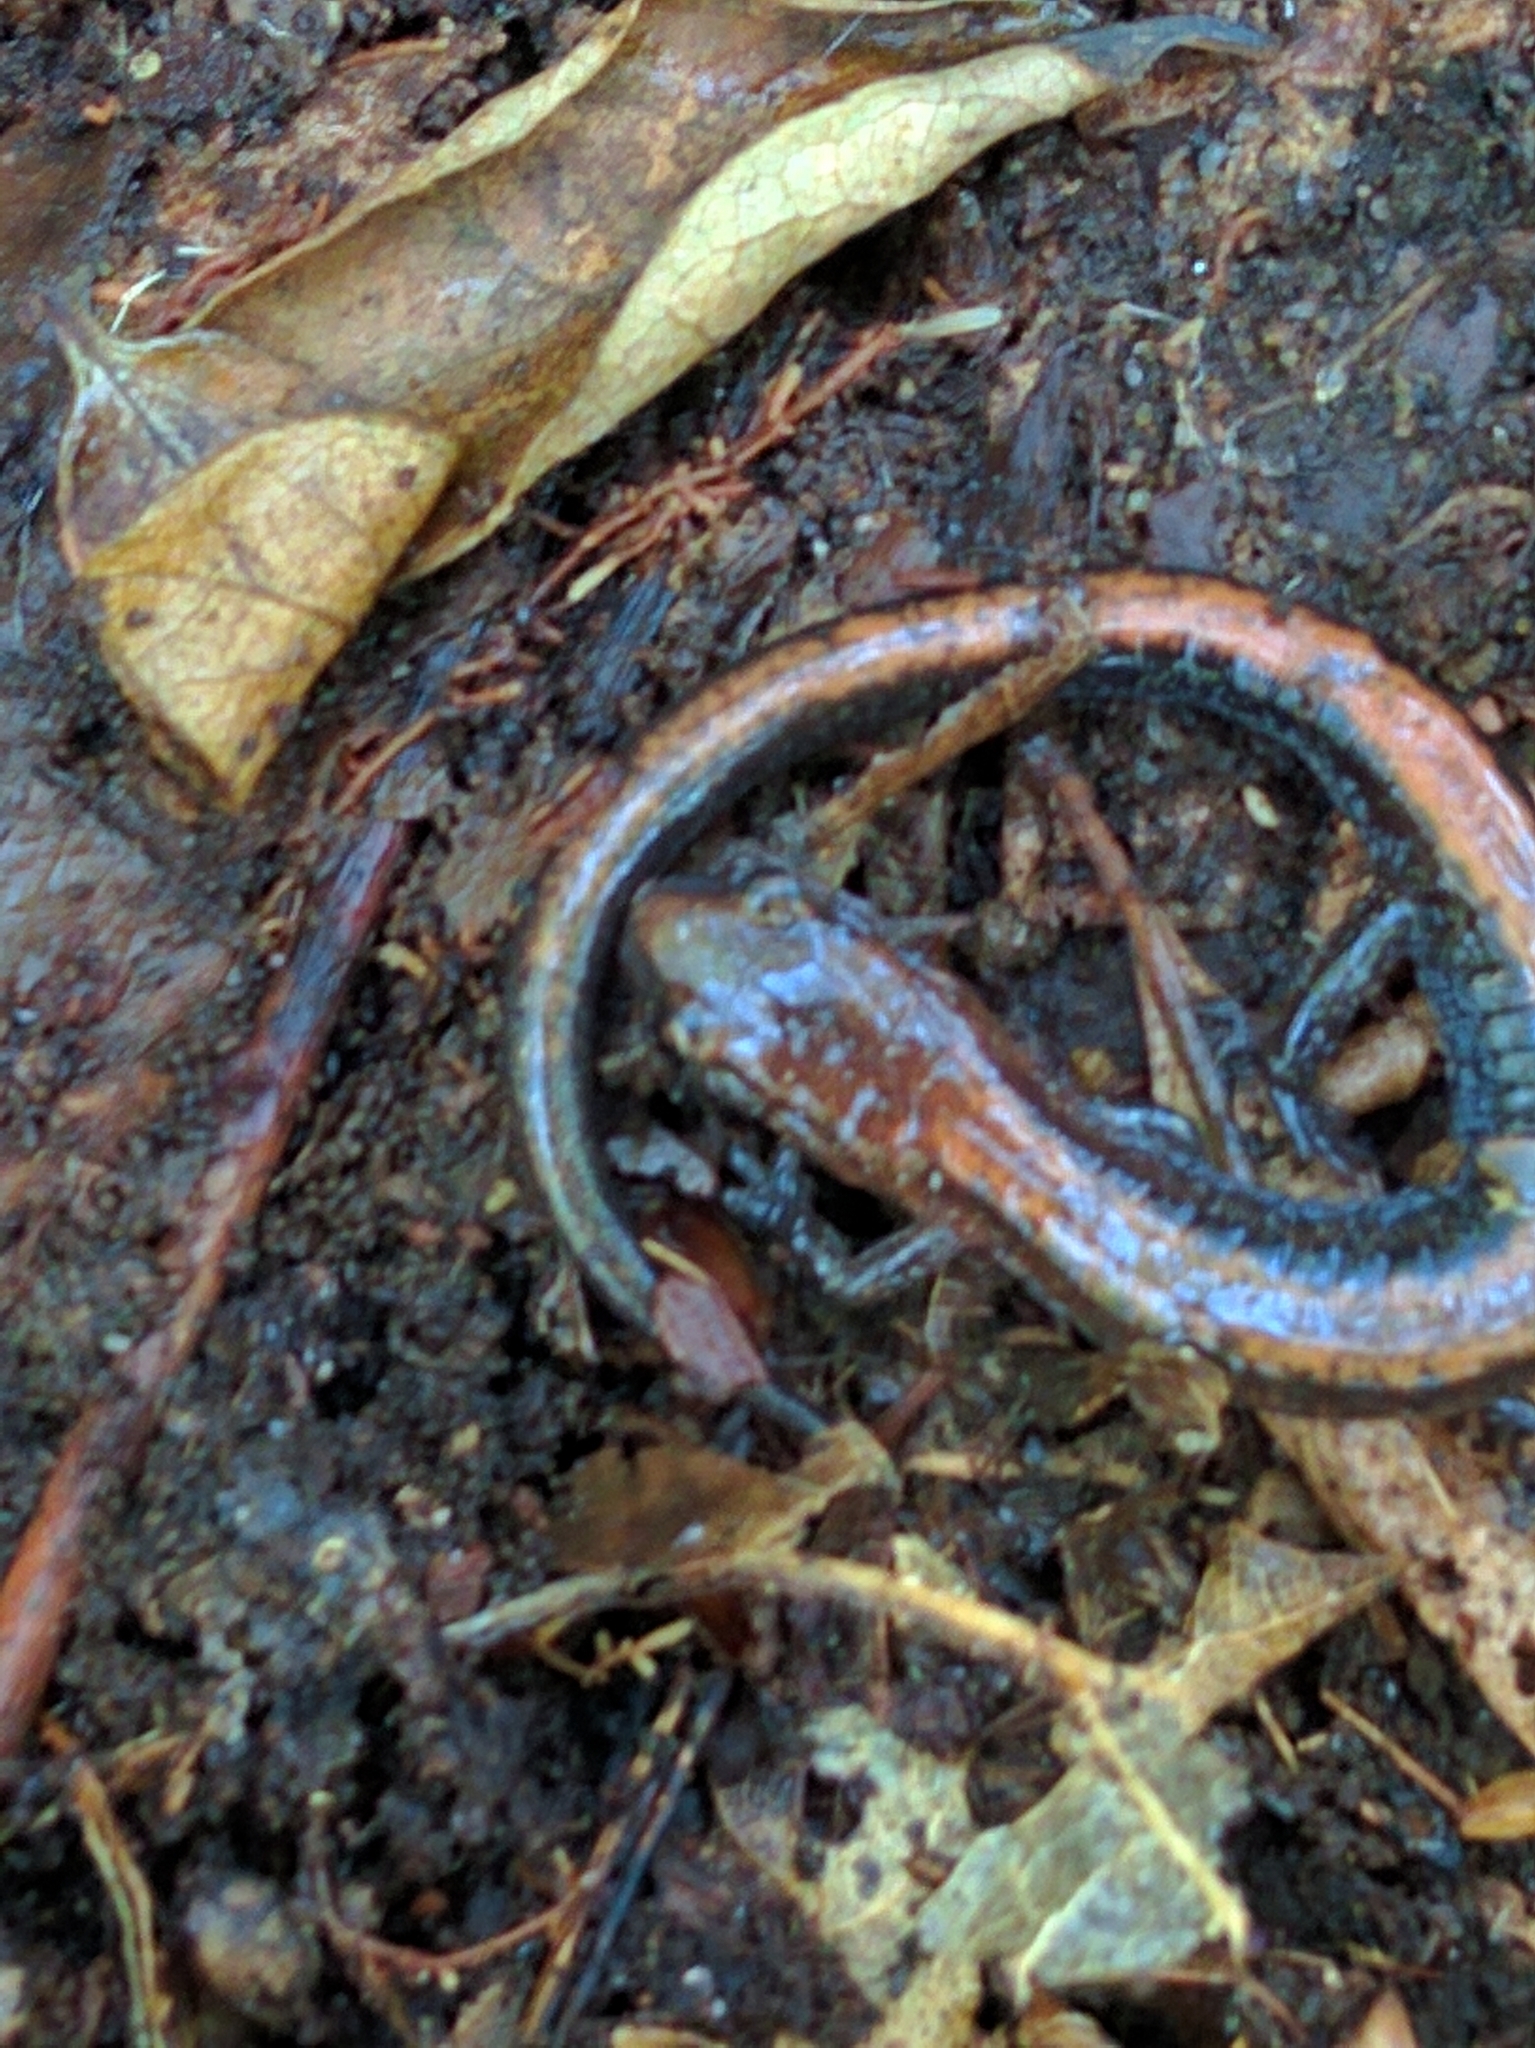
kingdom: Animalia
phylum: Chordata
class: Amphibia
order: Caudata
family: Plethodontidae
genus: Plethodon
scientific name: Plethodon cinereus
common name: Redback salamander
